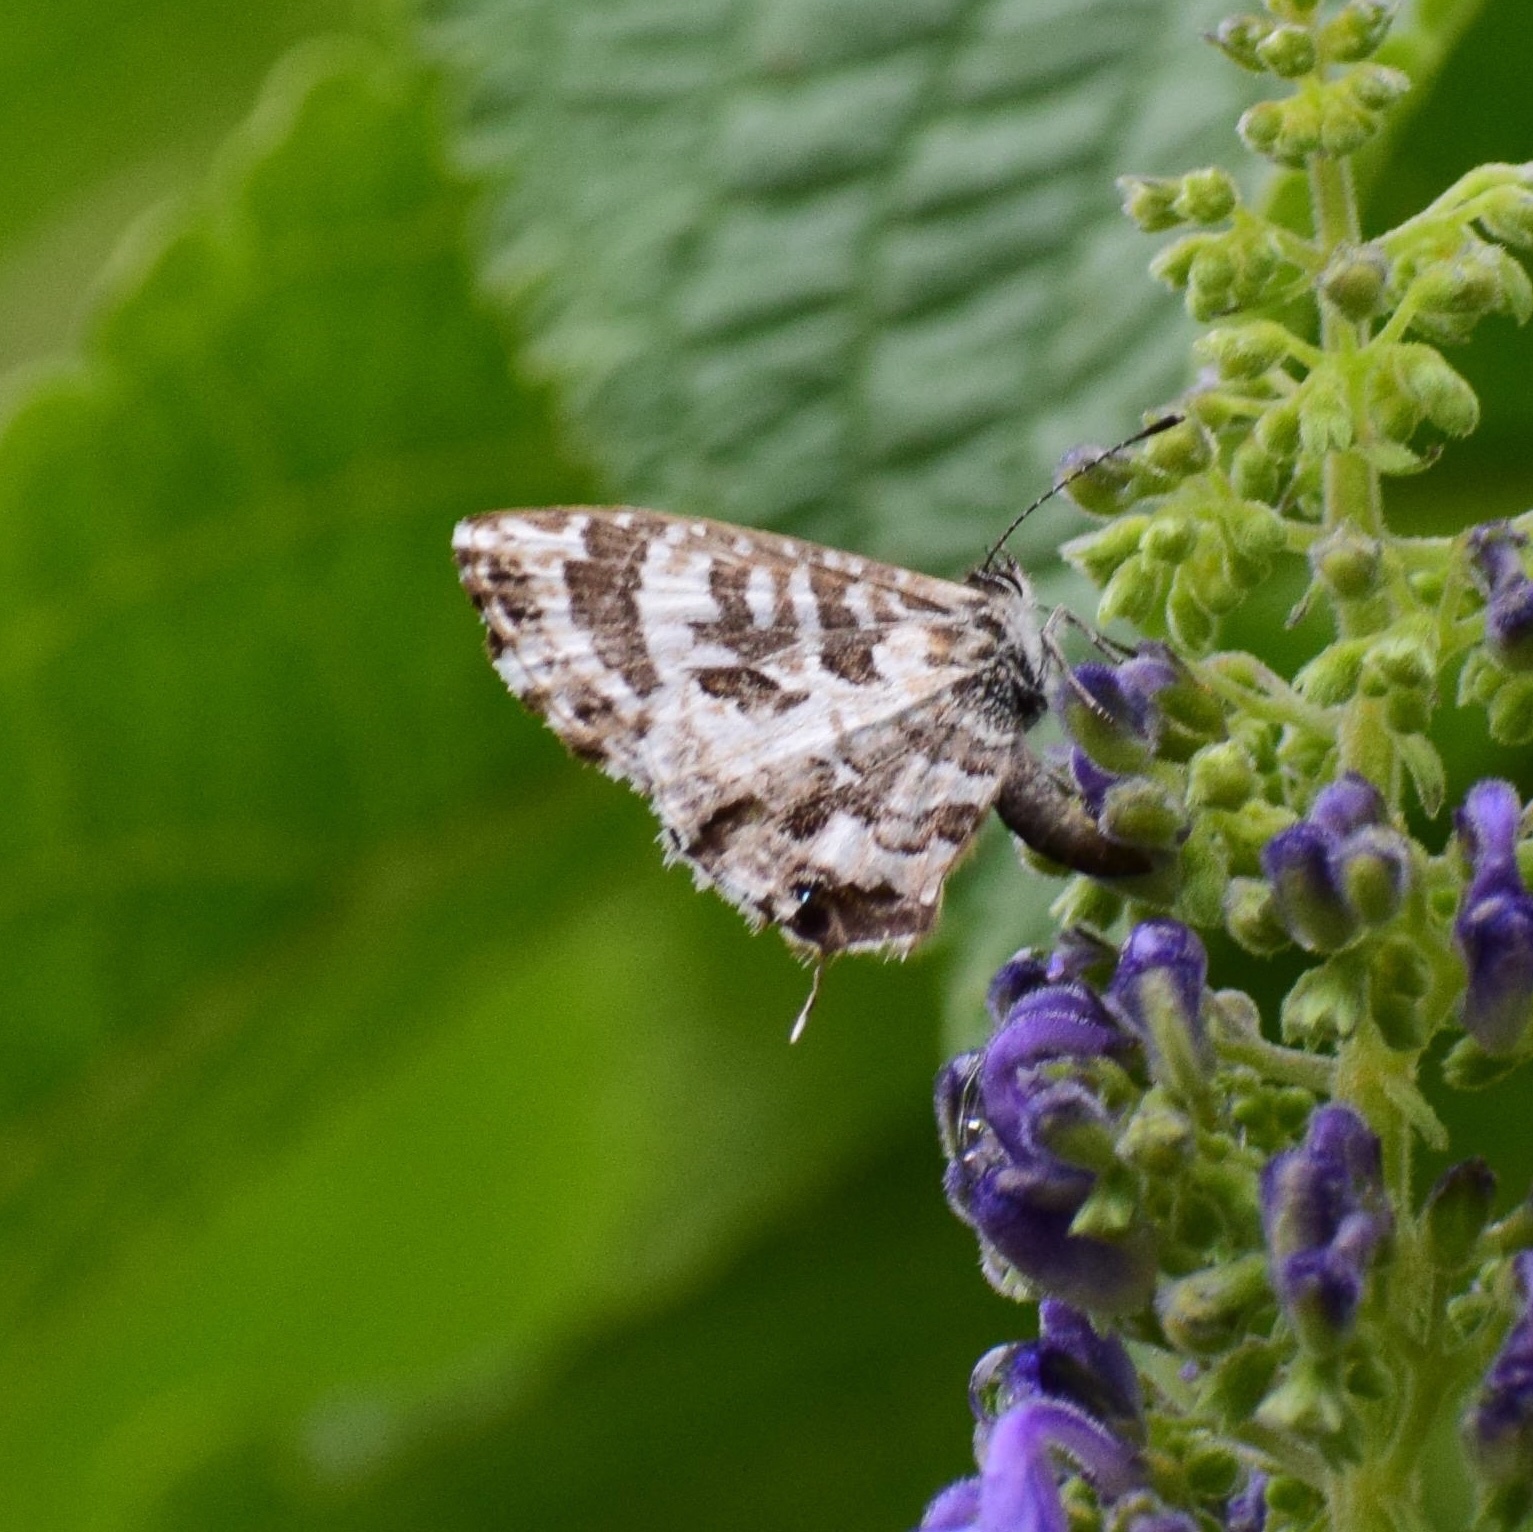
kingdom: Animalia
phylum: Arthropoda
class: Insecta
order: Lepidoptera
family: Lycaenidae
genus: Cacyreus
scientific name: Cacyreus lingeus
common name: Bush bronze
